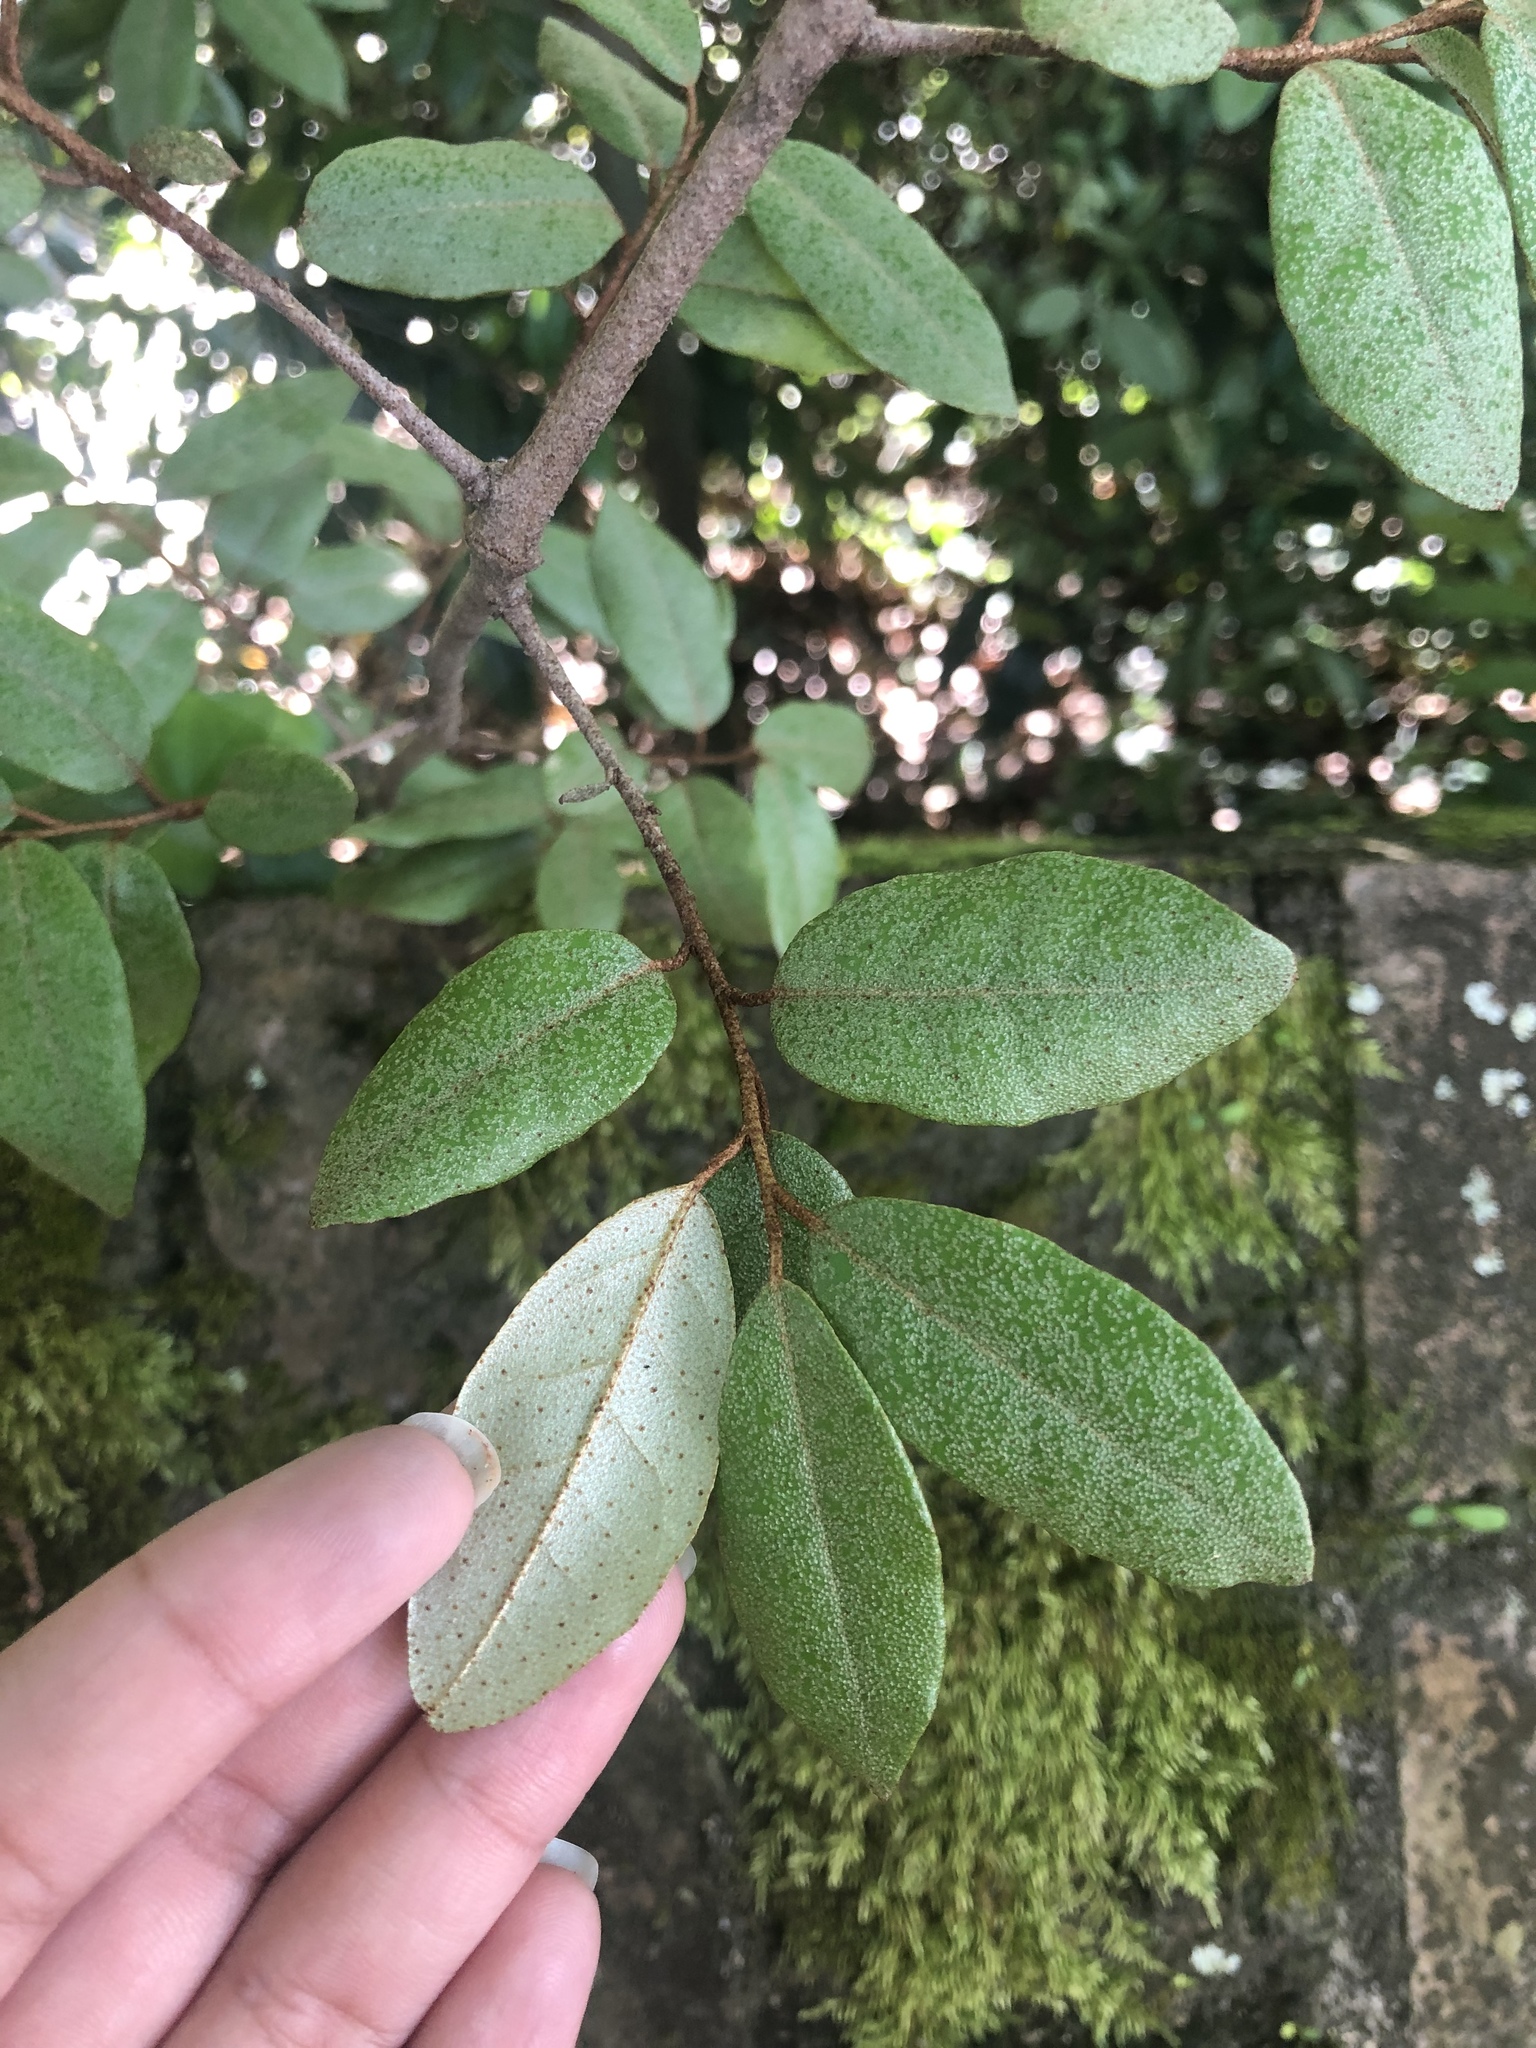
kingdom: Plantae
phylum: Tracheophyta
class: Magnoliopsida
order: Rosales
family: Elaeagnaceae
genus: Elaeagnus
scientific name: Elaeagnus pungens
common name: Spiny oleaster
